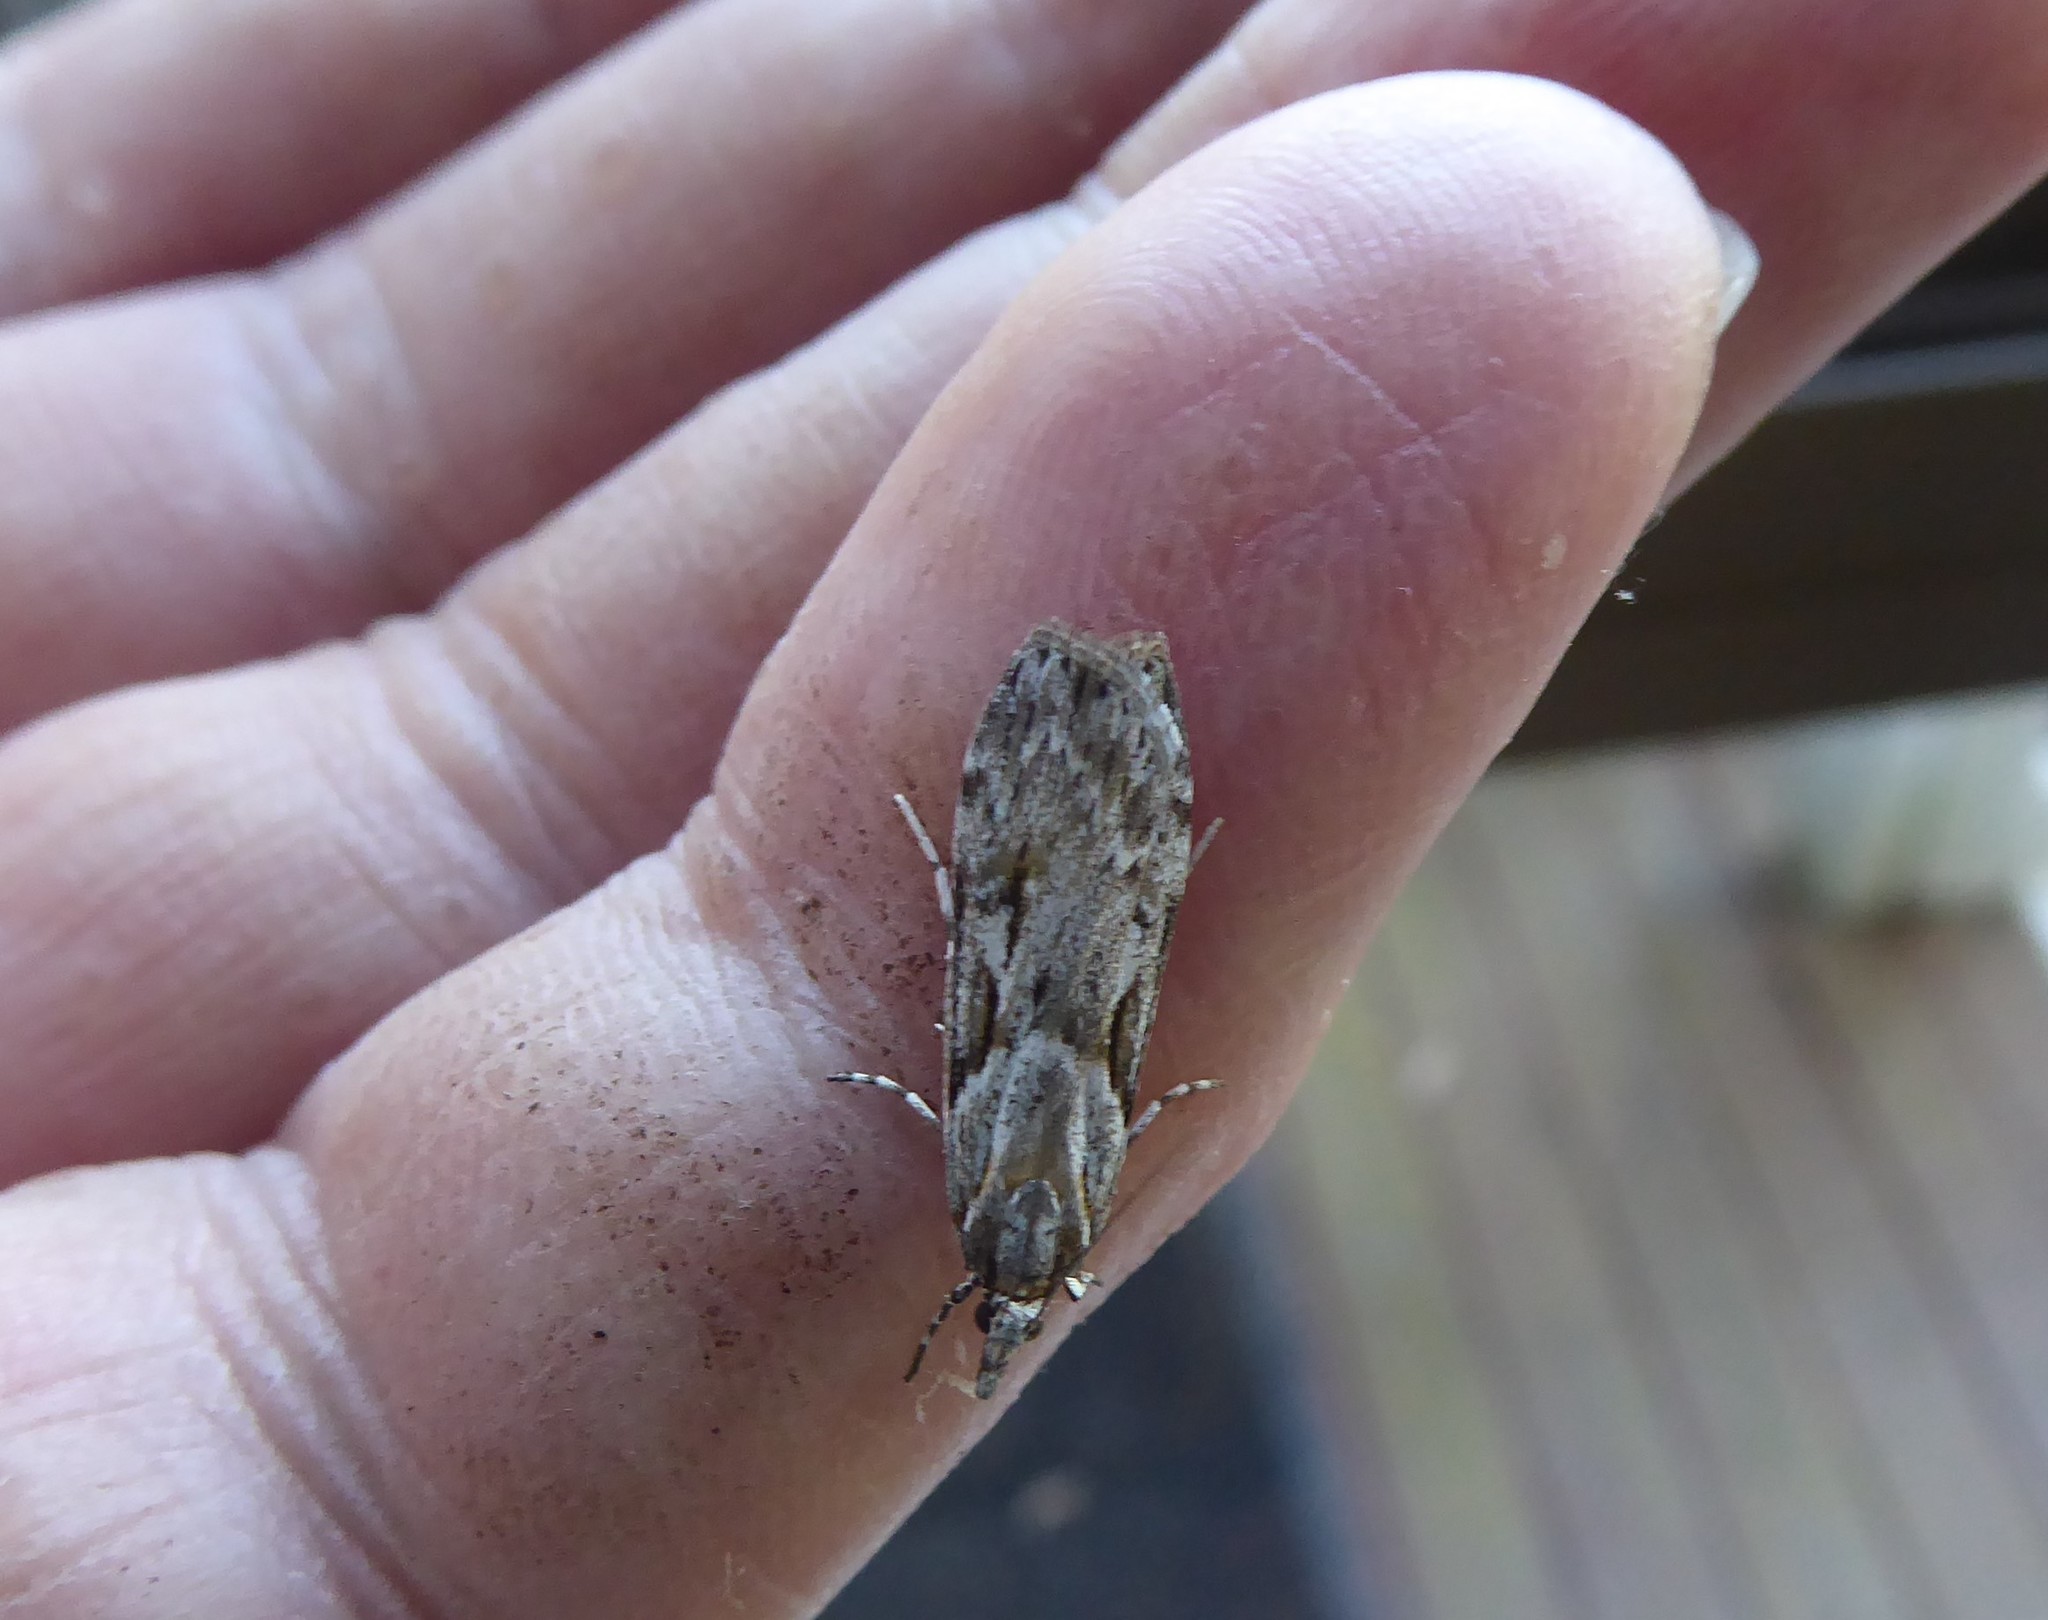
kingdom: Animalia
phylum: Arthropoda
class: Insecta
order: Lepidoptera
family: Crambidae
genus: Scoparia
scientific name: Scoparia halopis
